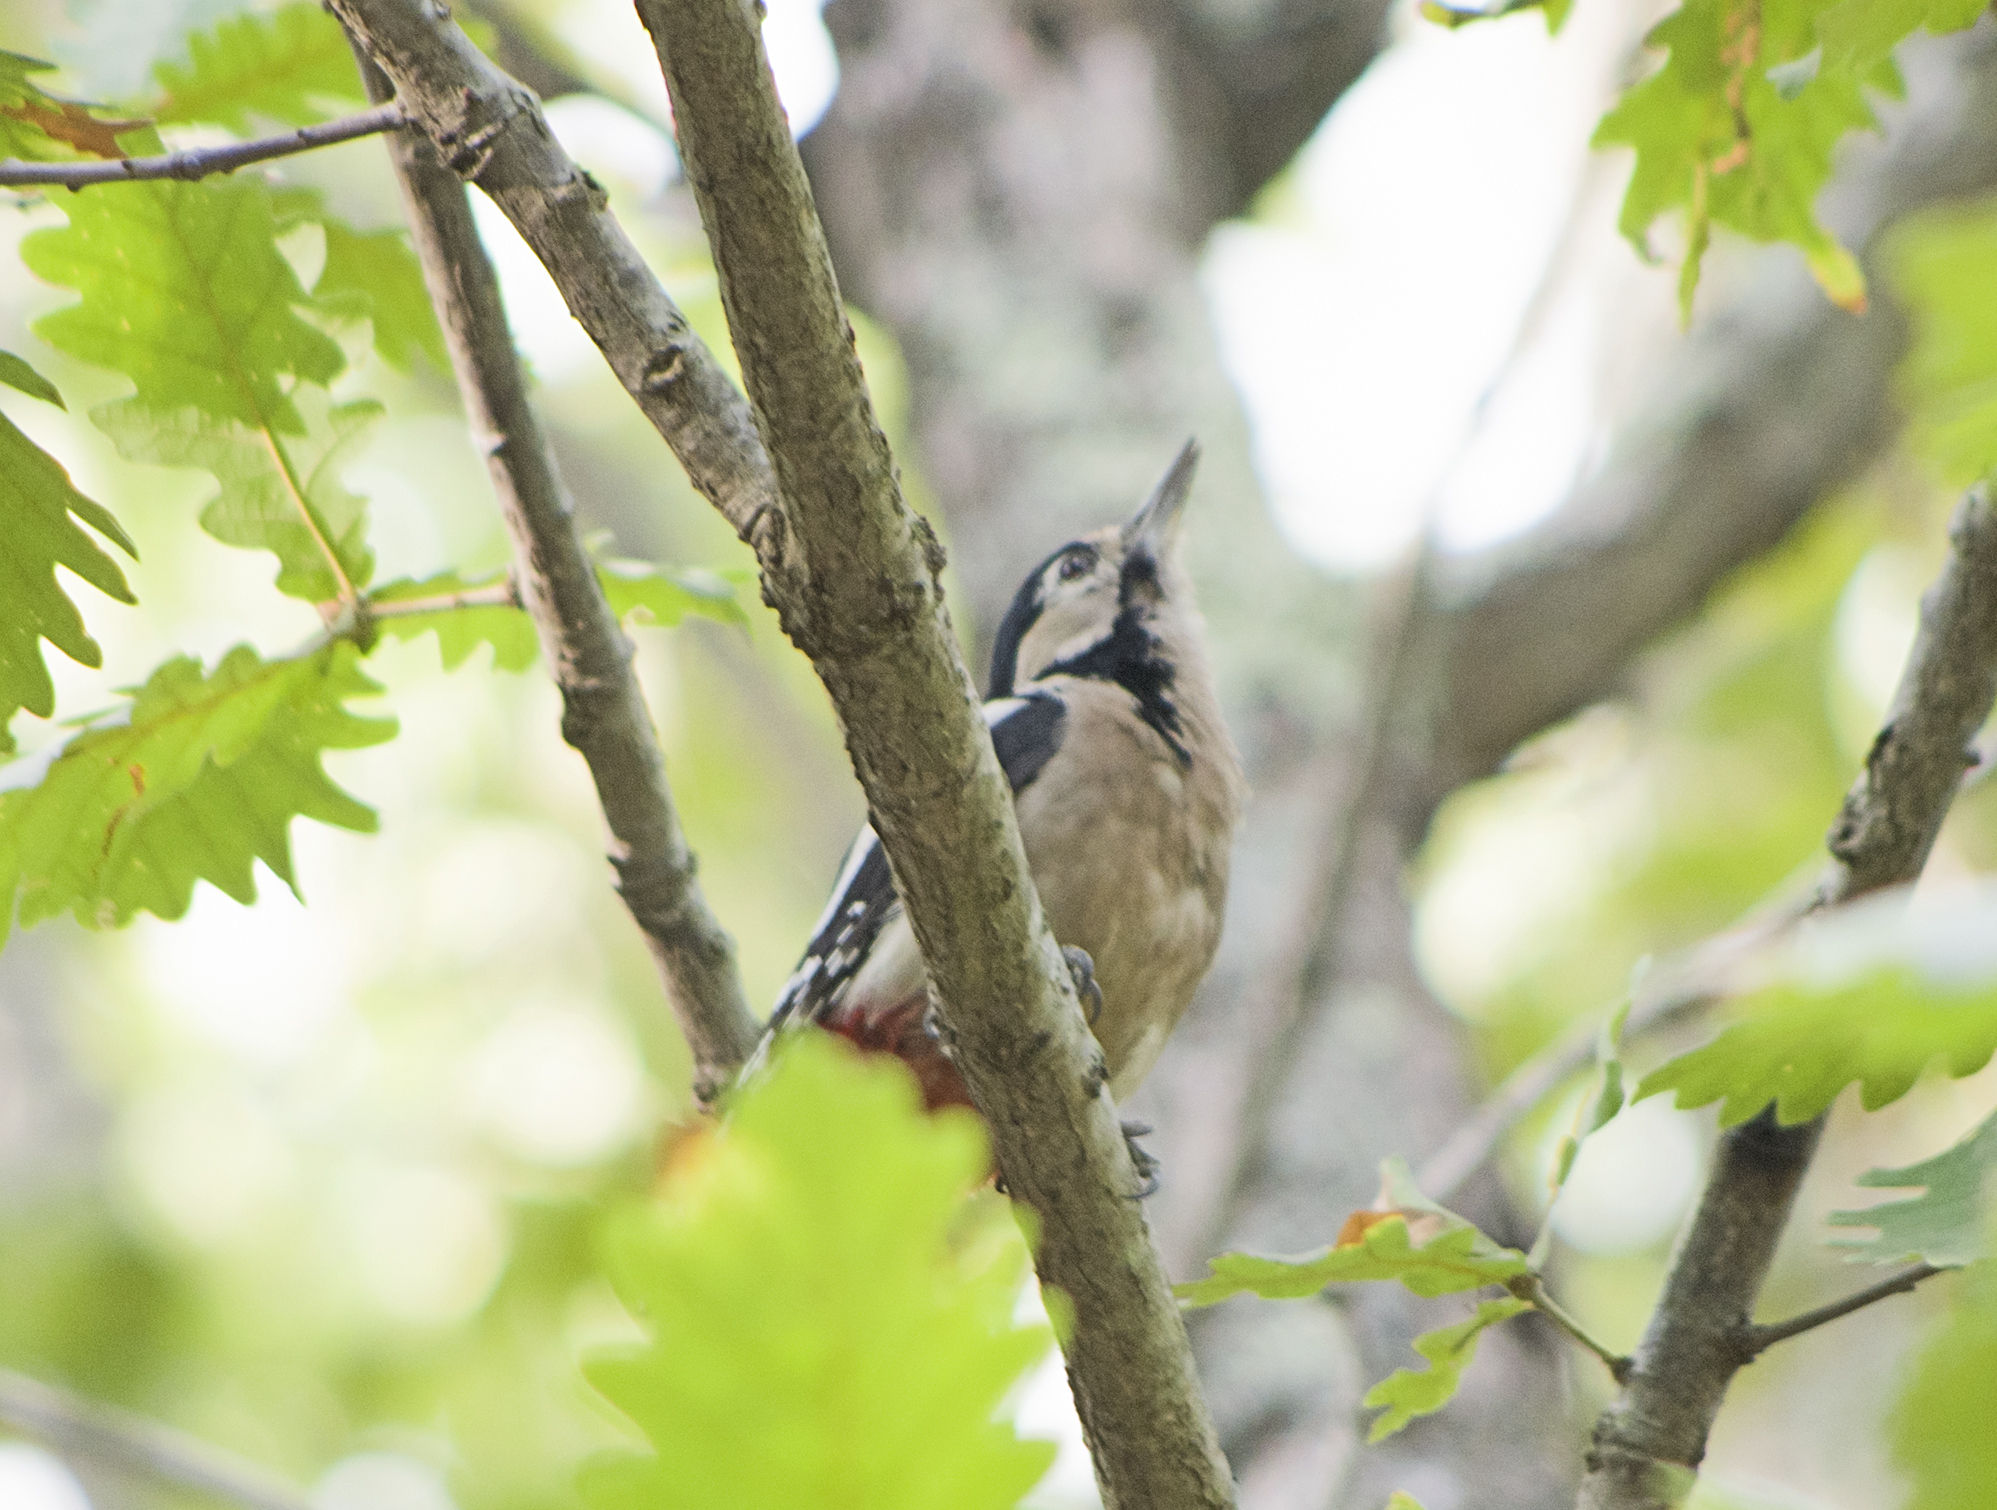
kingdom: Animalia
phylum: Chordata
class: Aves
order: Piciformes
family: Picidae
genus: Dendrocopos
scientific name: Dendrocopos major
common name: Great spotted woodpecker
